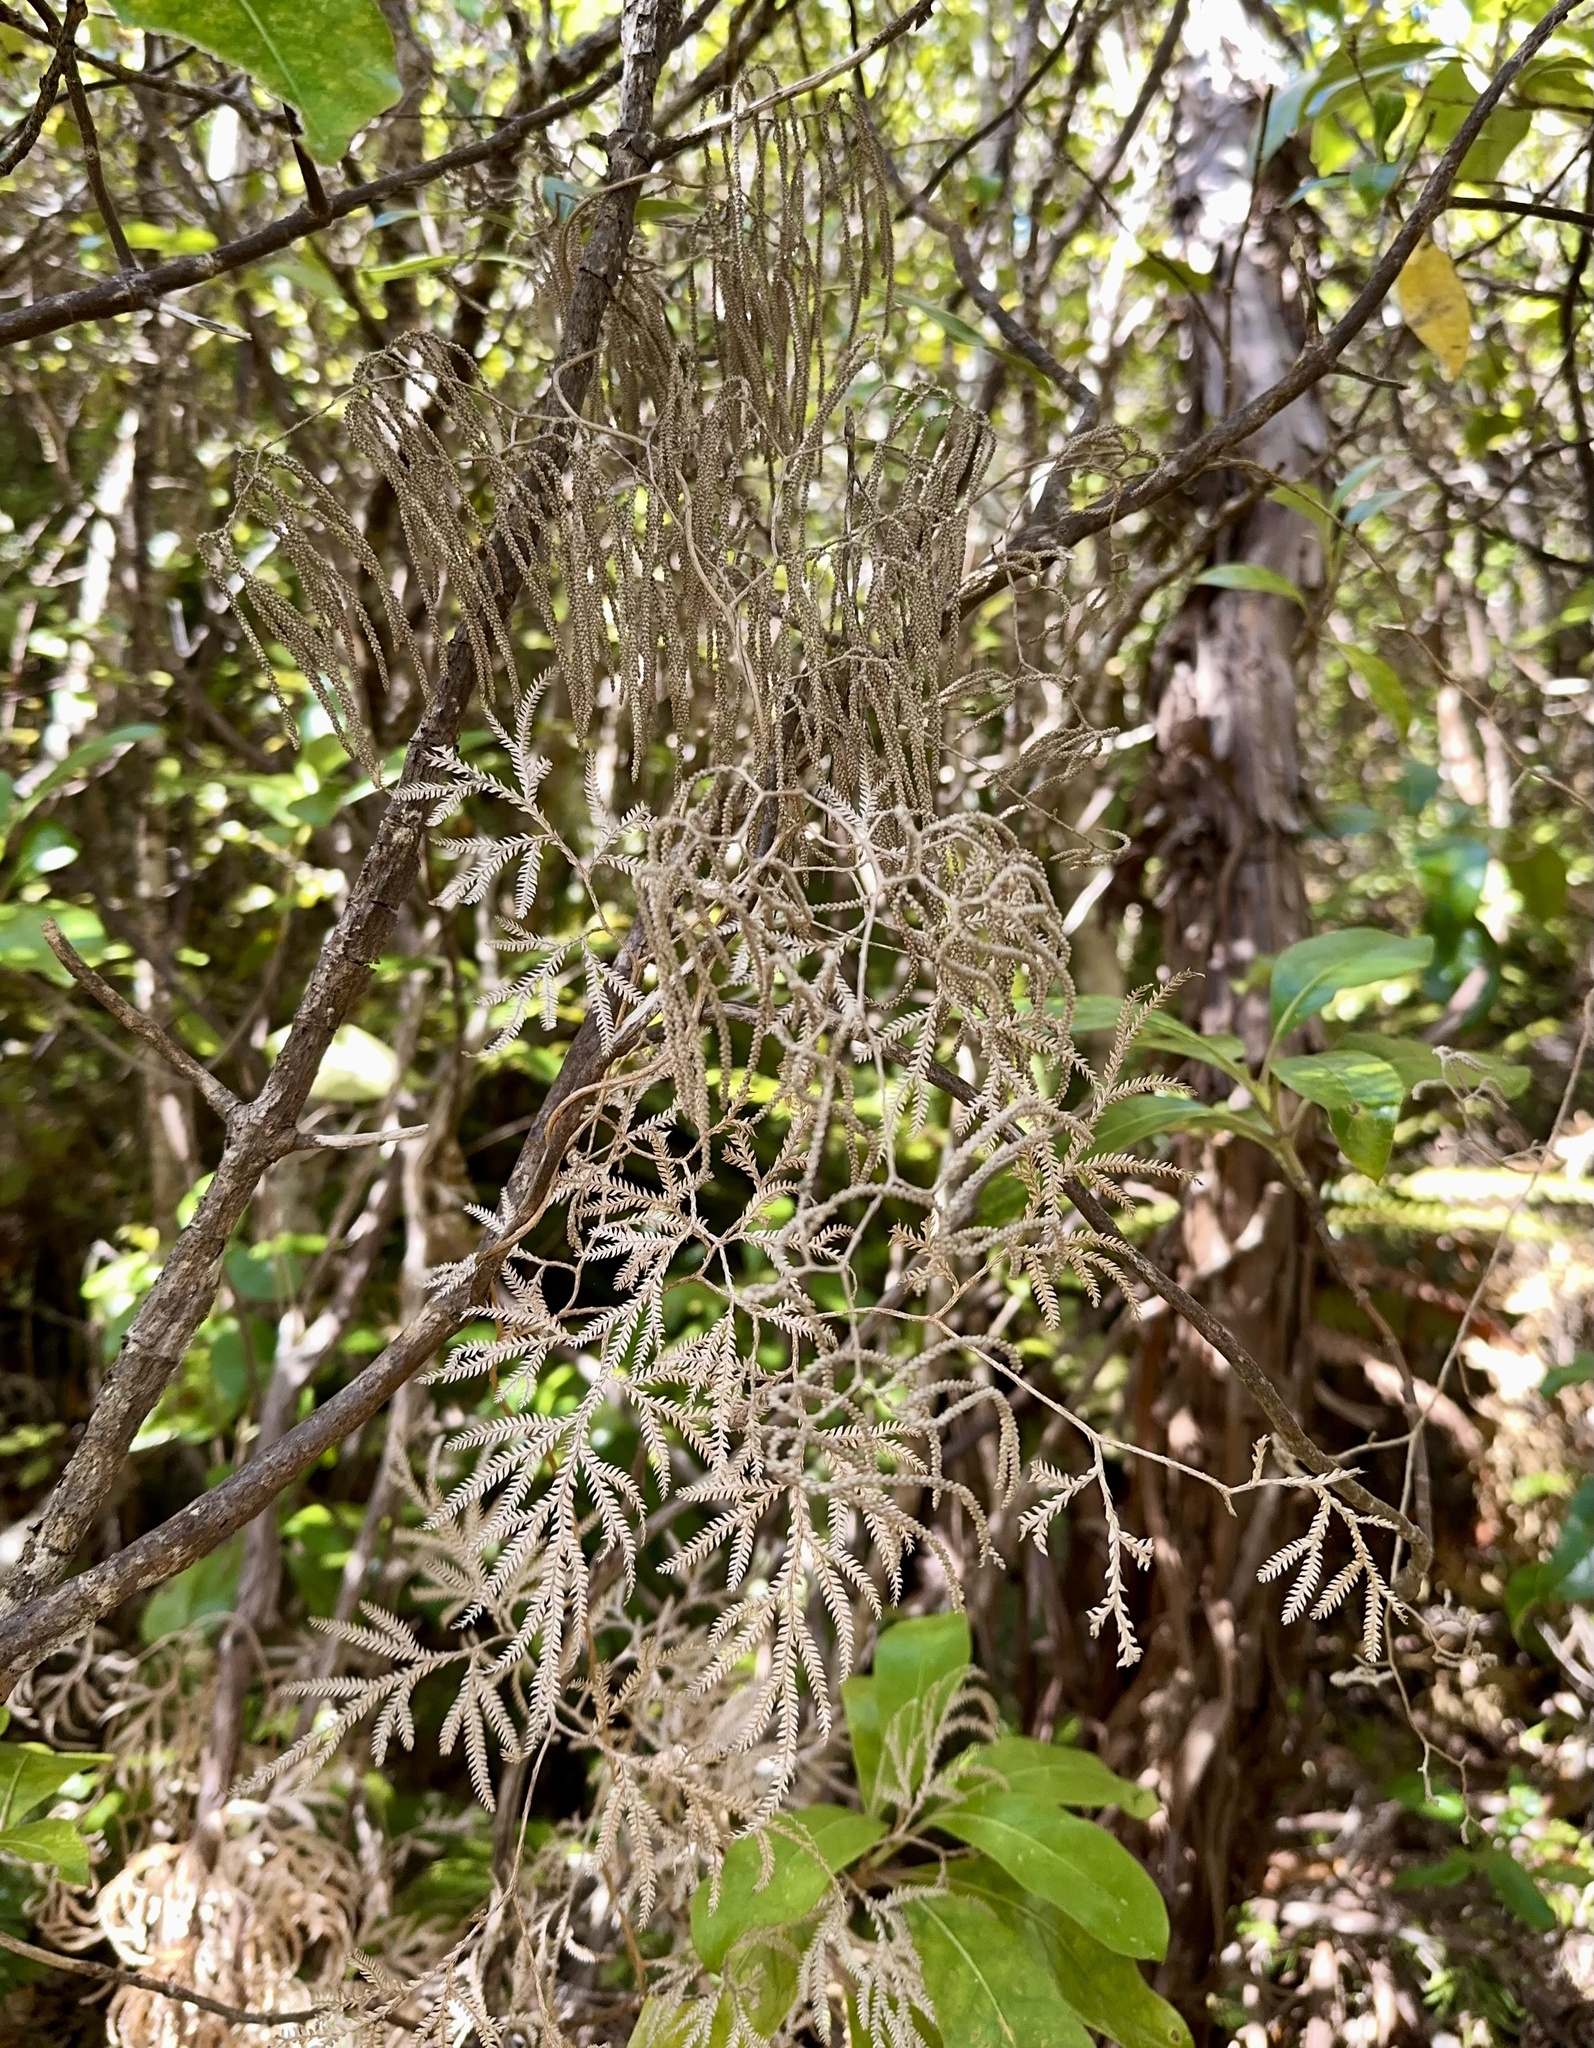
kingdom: Plantae
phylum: Tracheophyta
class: Lycopodiopsida
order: Lycopodiales
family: Lycopodiaceae
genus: Lycopodium
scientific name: Lycopodium volubile
